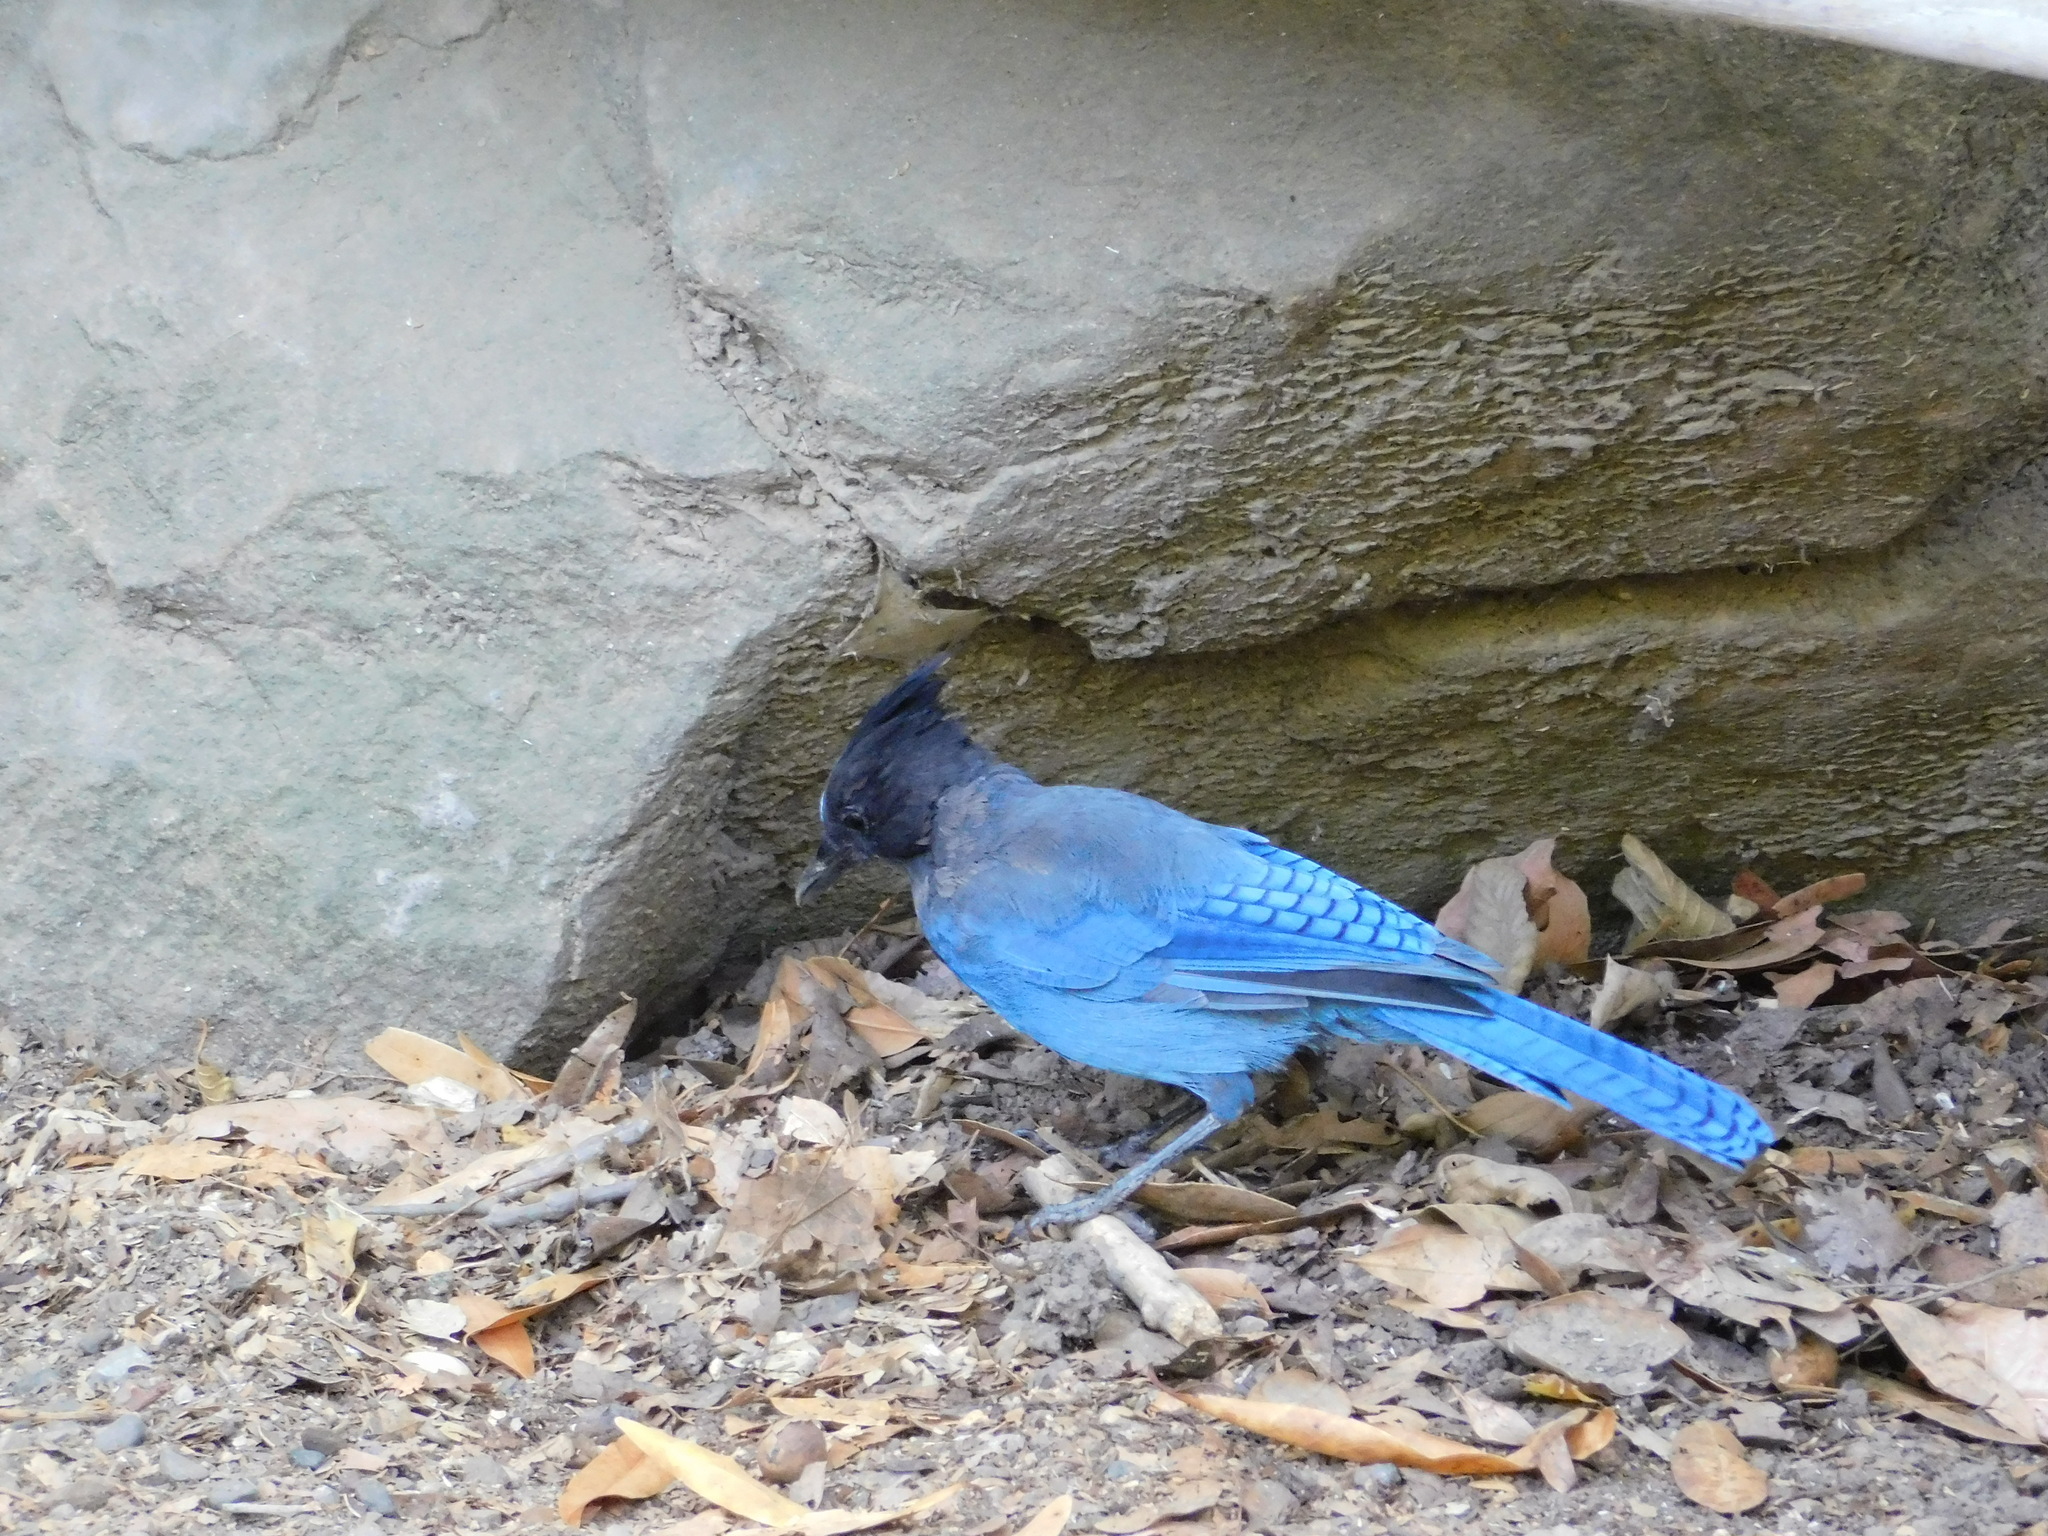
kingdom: Animalia
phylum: Chordata
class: Aves
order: Passeriformes
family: Corvidae
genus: Cyanocitta
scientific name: Cyanocitta stelleri
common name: Steller's jay
